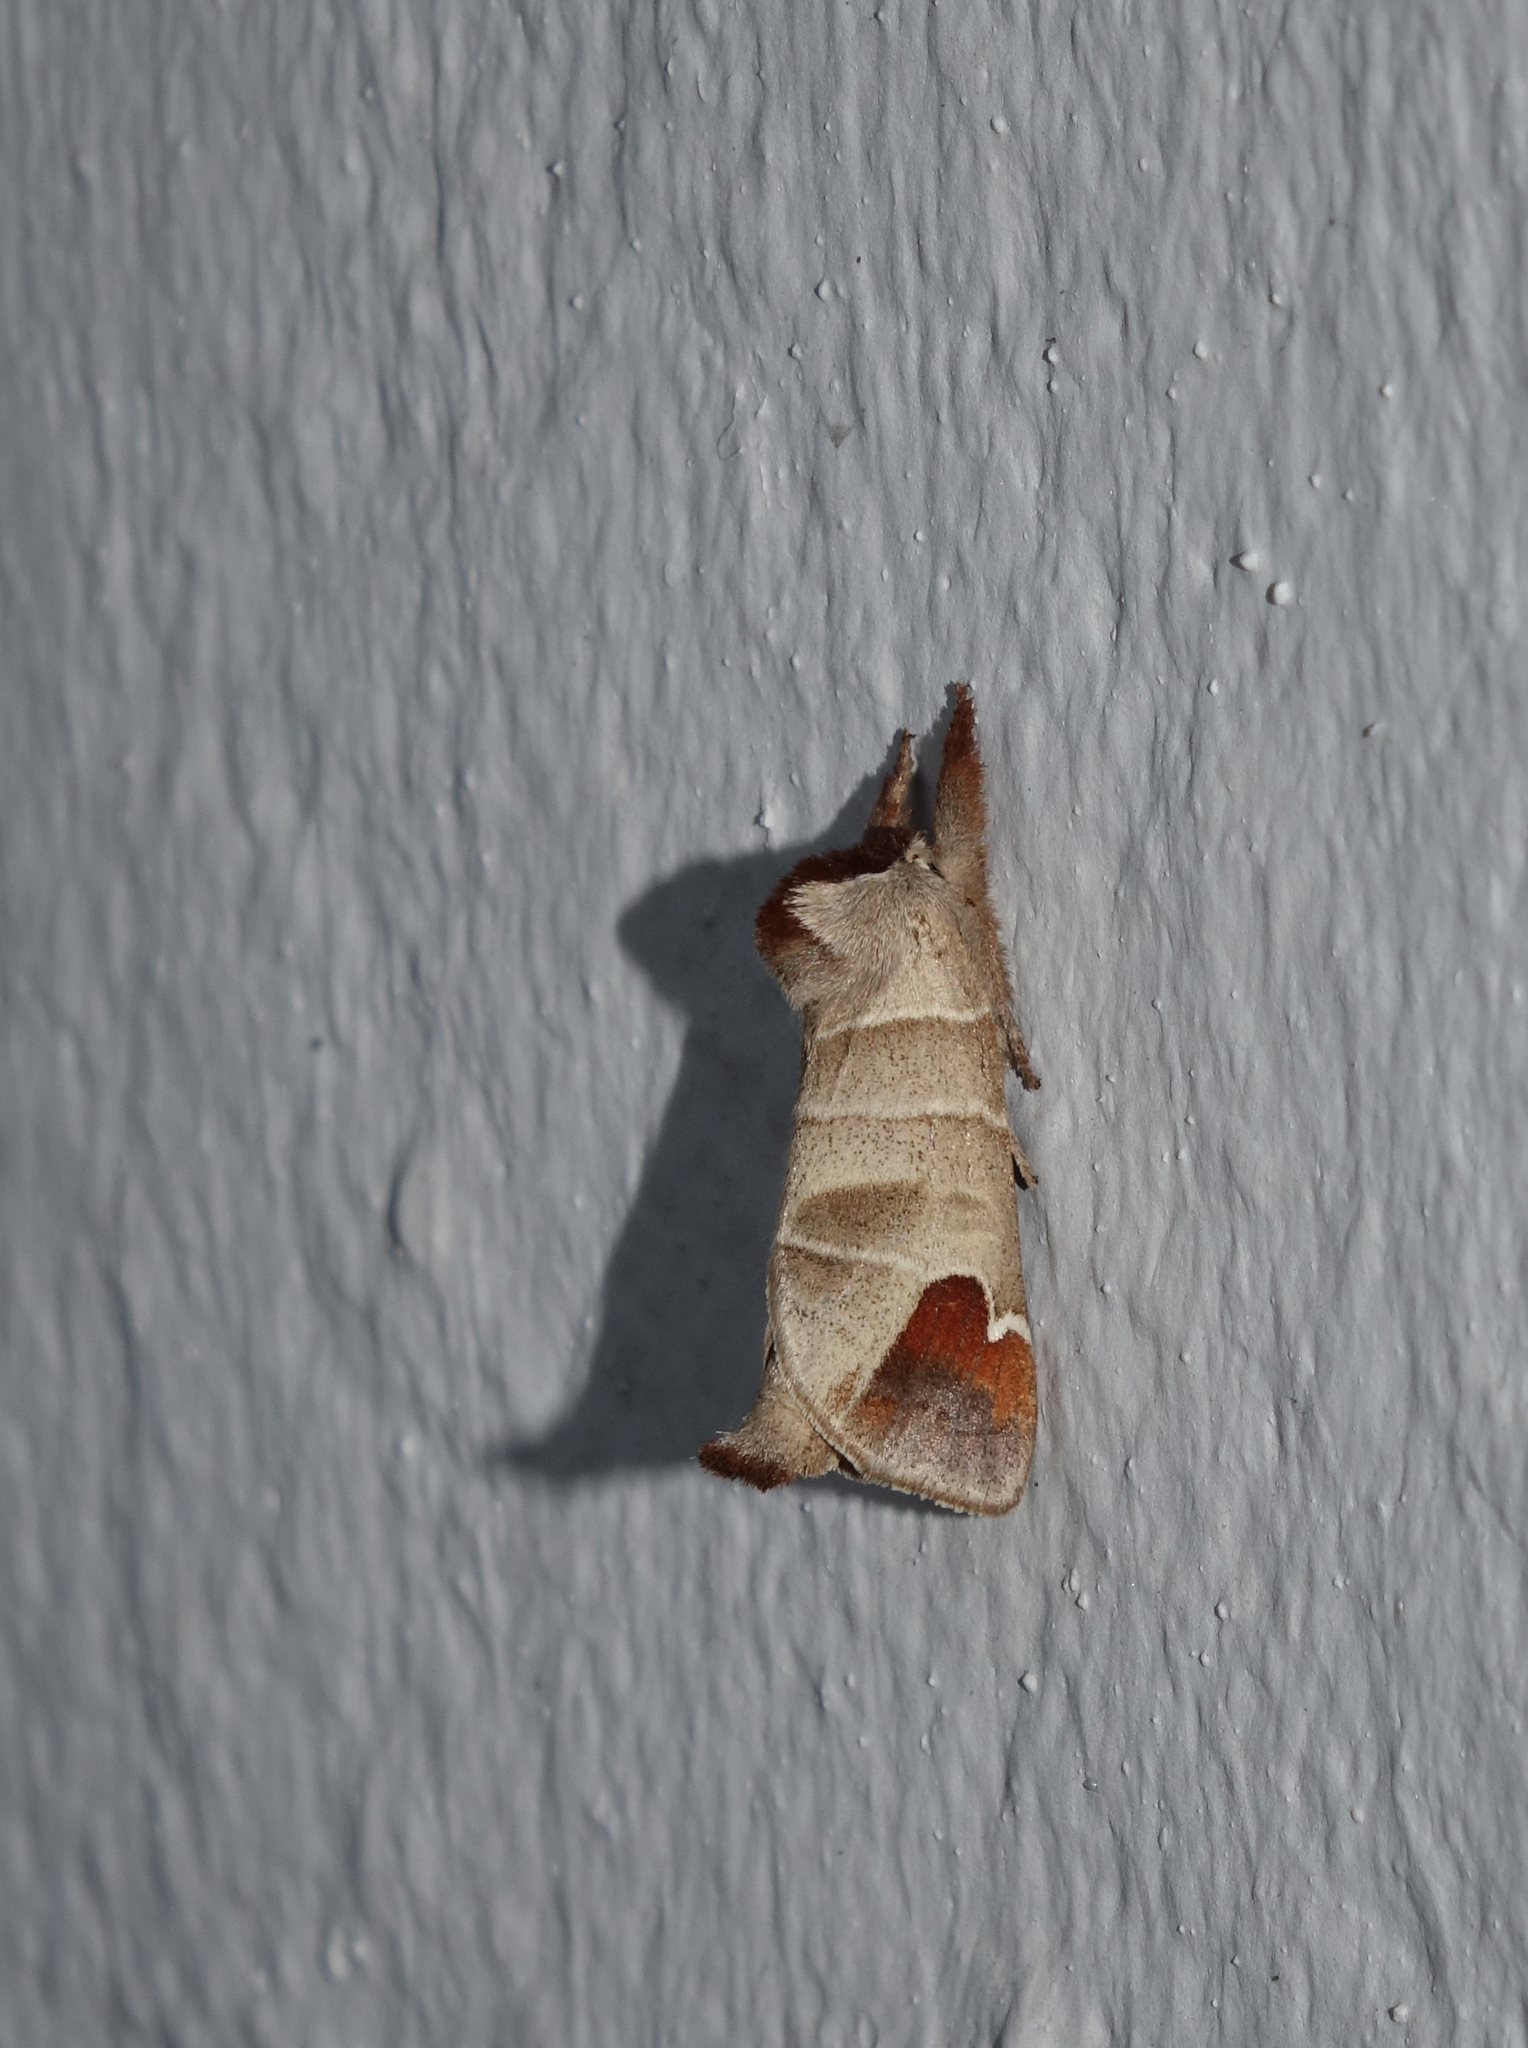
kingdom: Animalia
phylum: Arthropoda
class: Insecta
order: Lepidoptera
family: Notodontidae
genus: Clostera
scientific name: Clostera albosigma
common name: Sigmoid prominent
